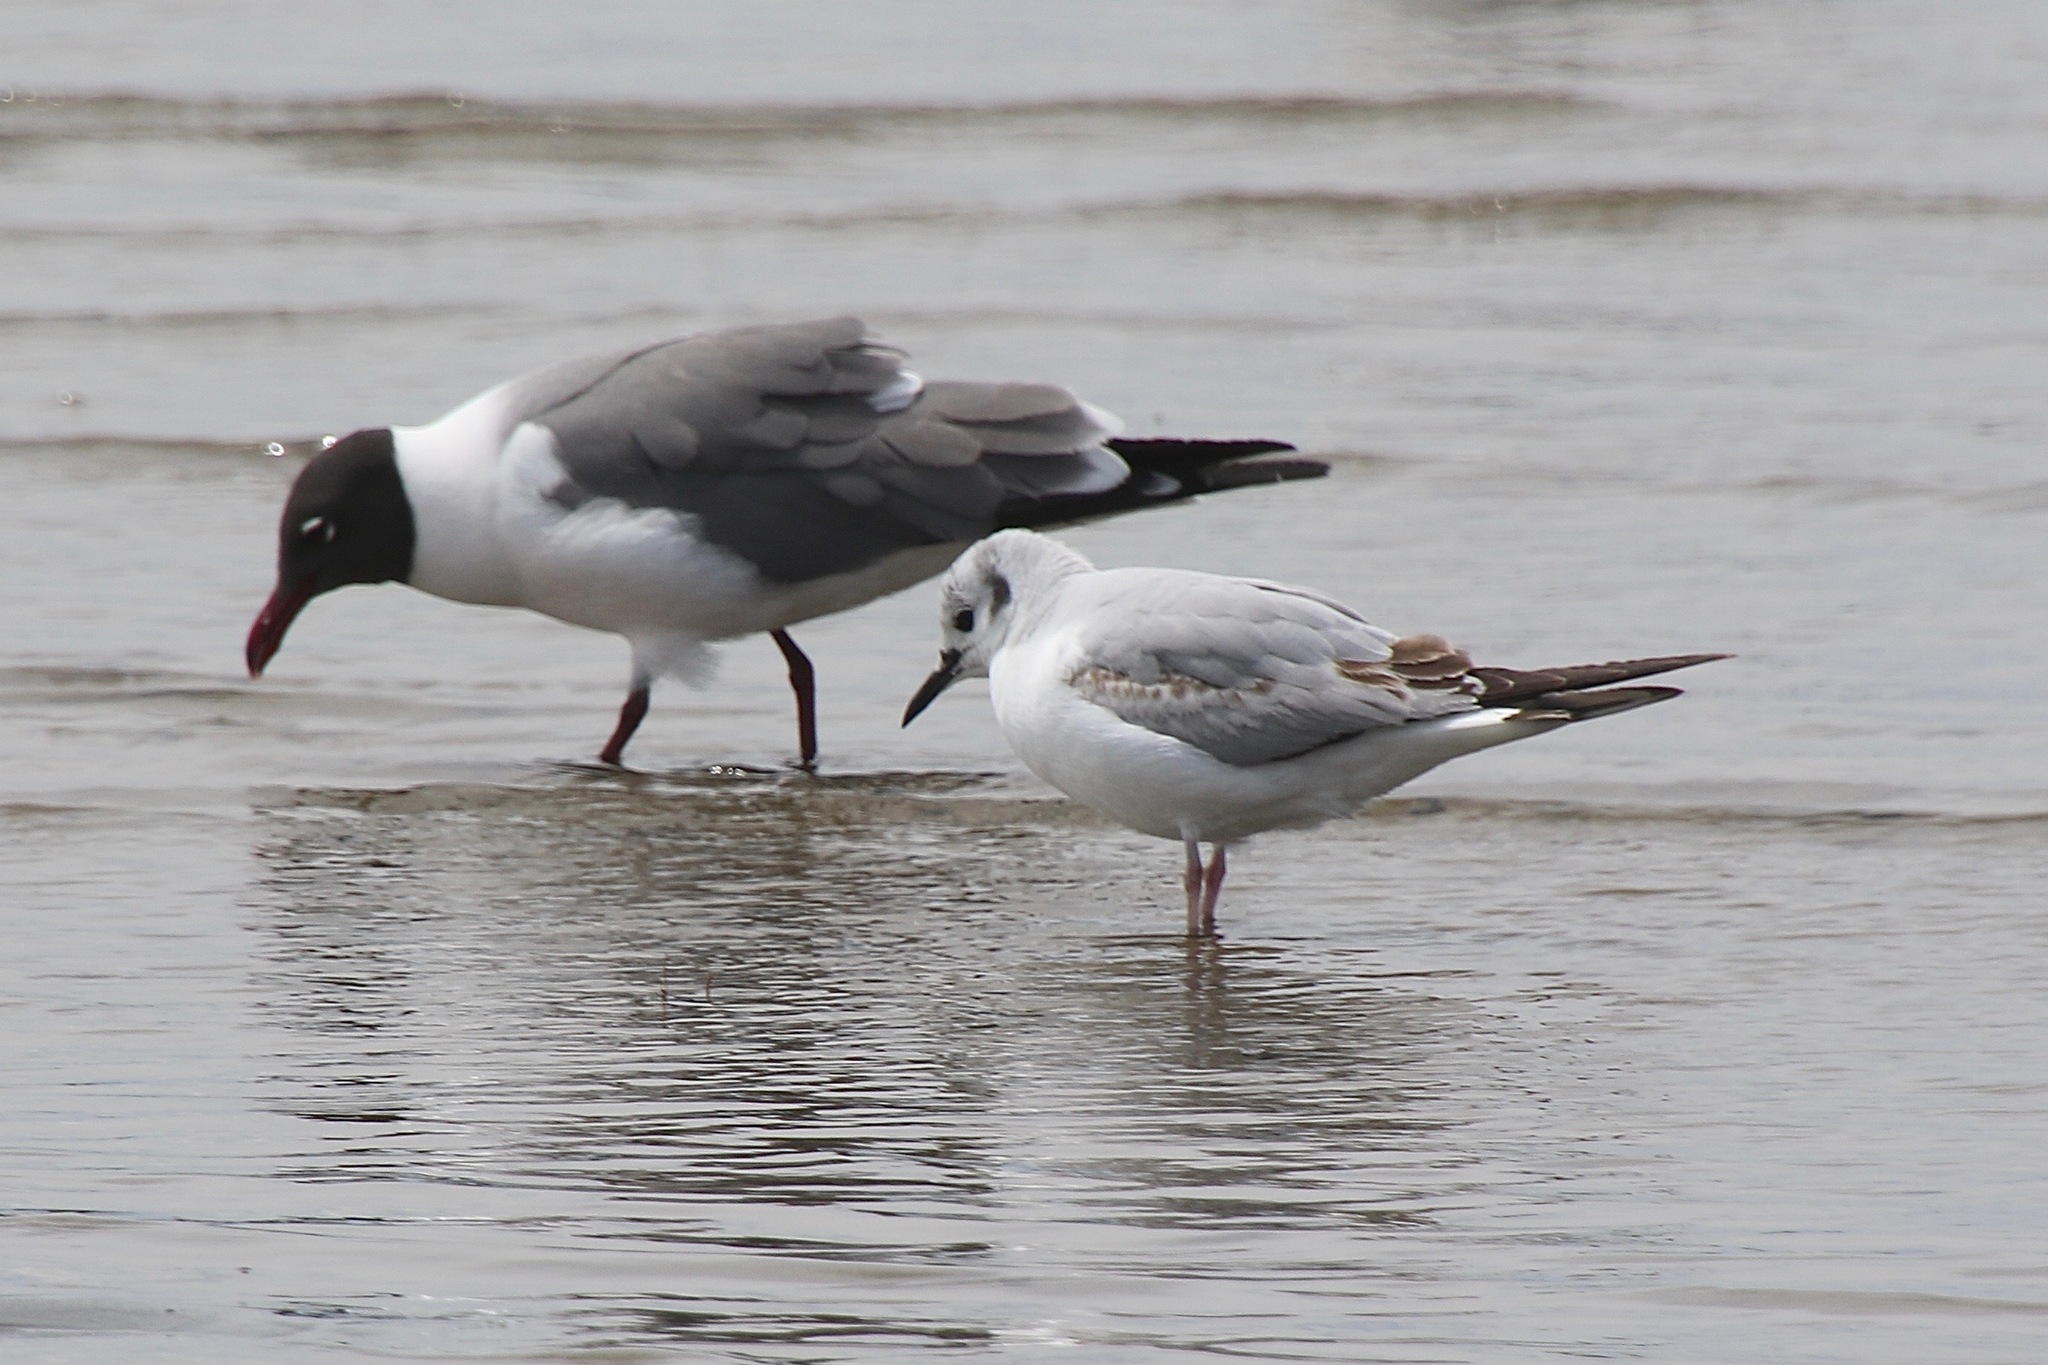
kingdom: Animalia
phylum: Chordata
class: Aves
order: Charadriiformes
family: Laridae
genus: Leucophaeus
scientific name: Leucophaeus atricilla
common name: Laughing gull
